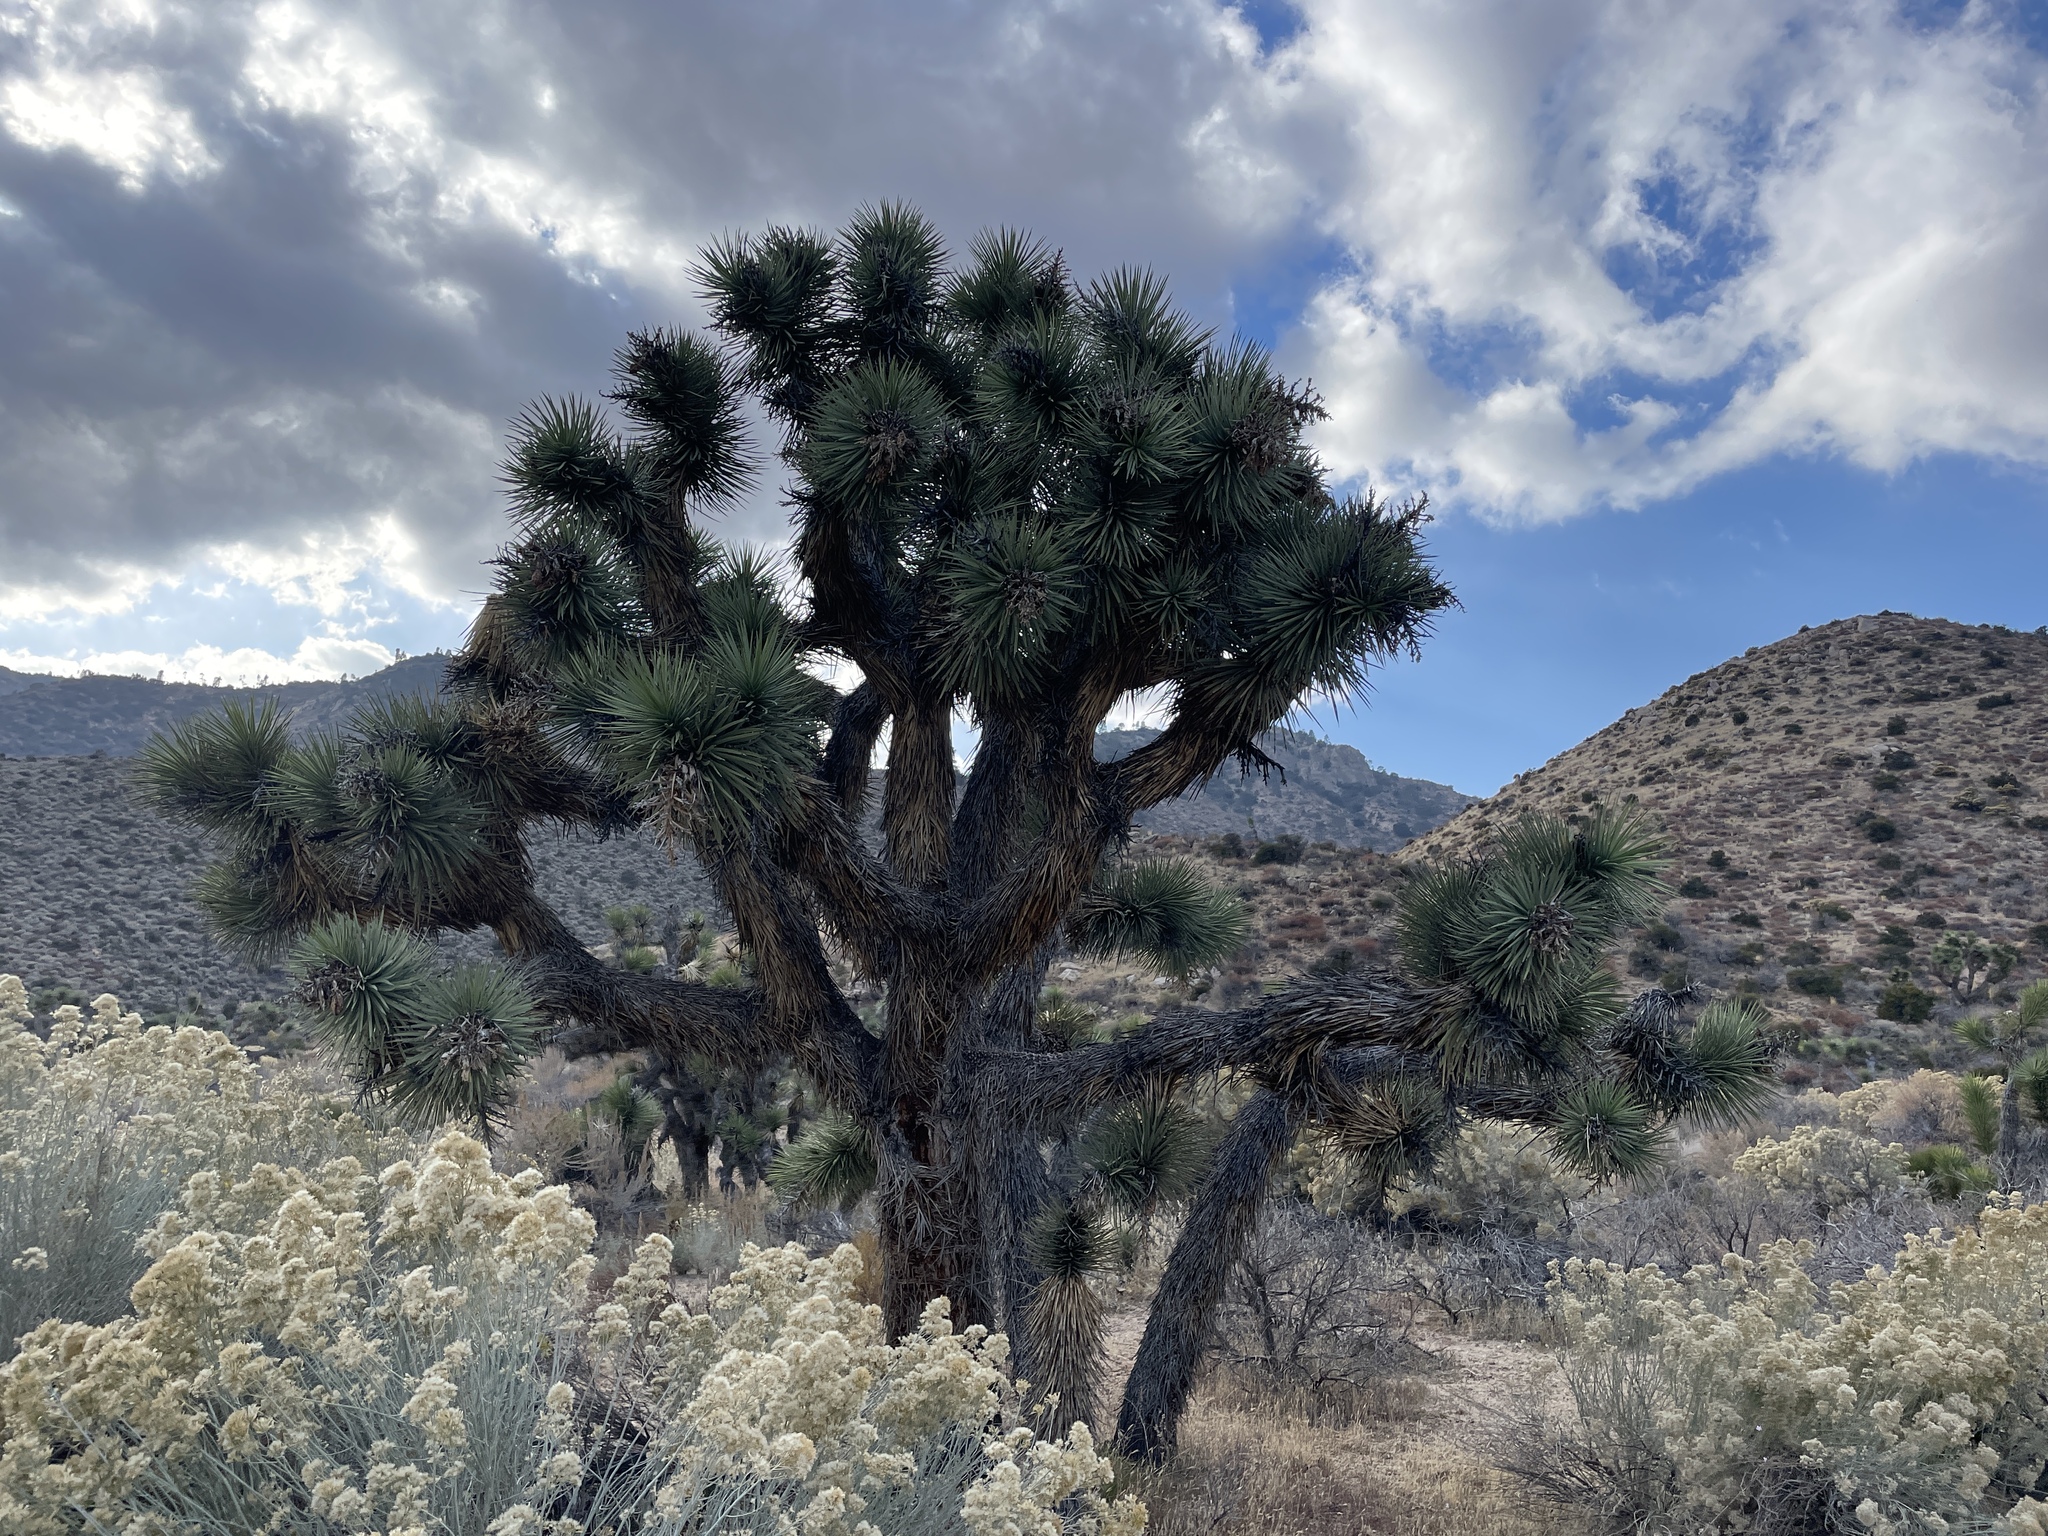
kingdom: Plantae
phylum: Tracheophyta
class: Liliopsida
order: Asparagales
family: Asparagaceae
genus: Yucca
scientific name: Yucca brevifolia
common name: Joshua tree
